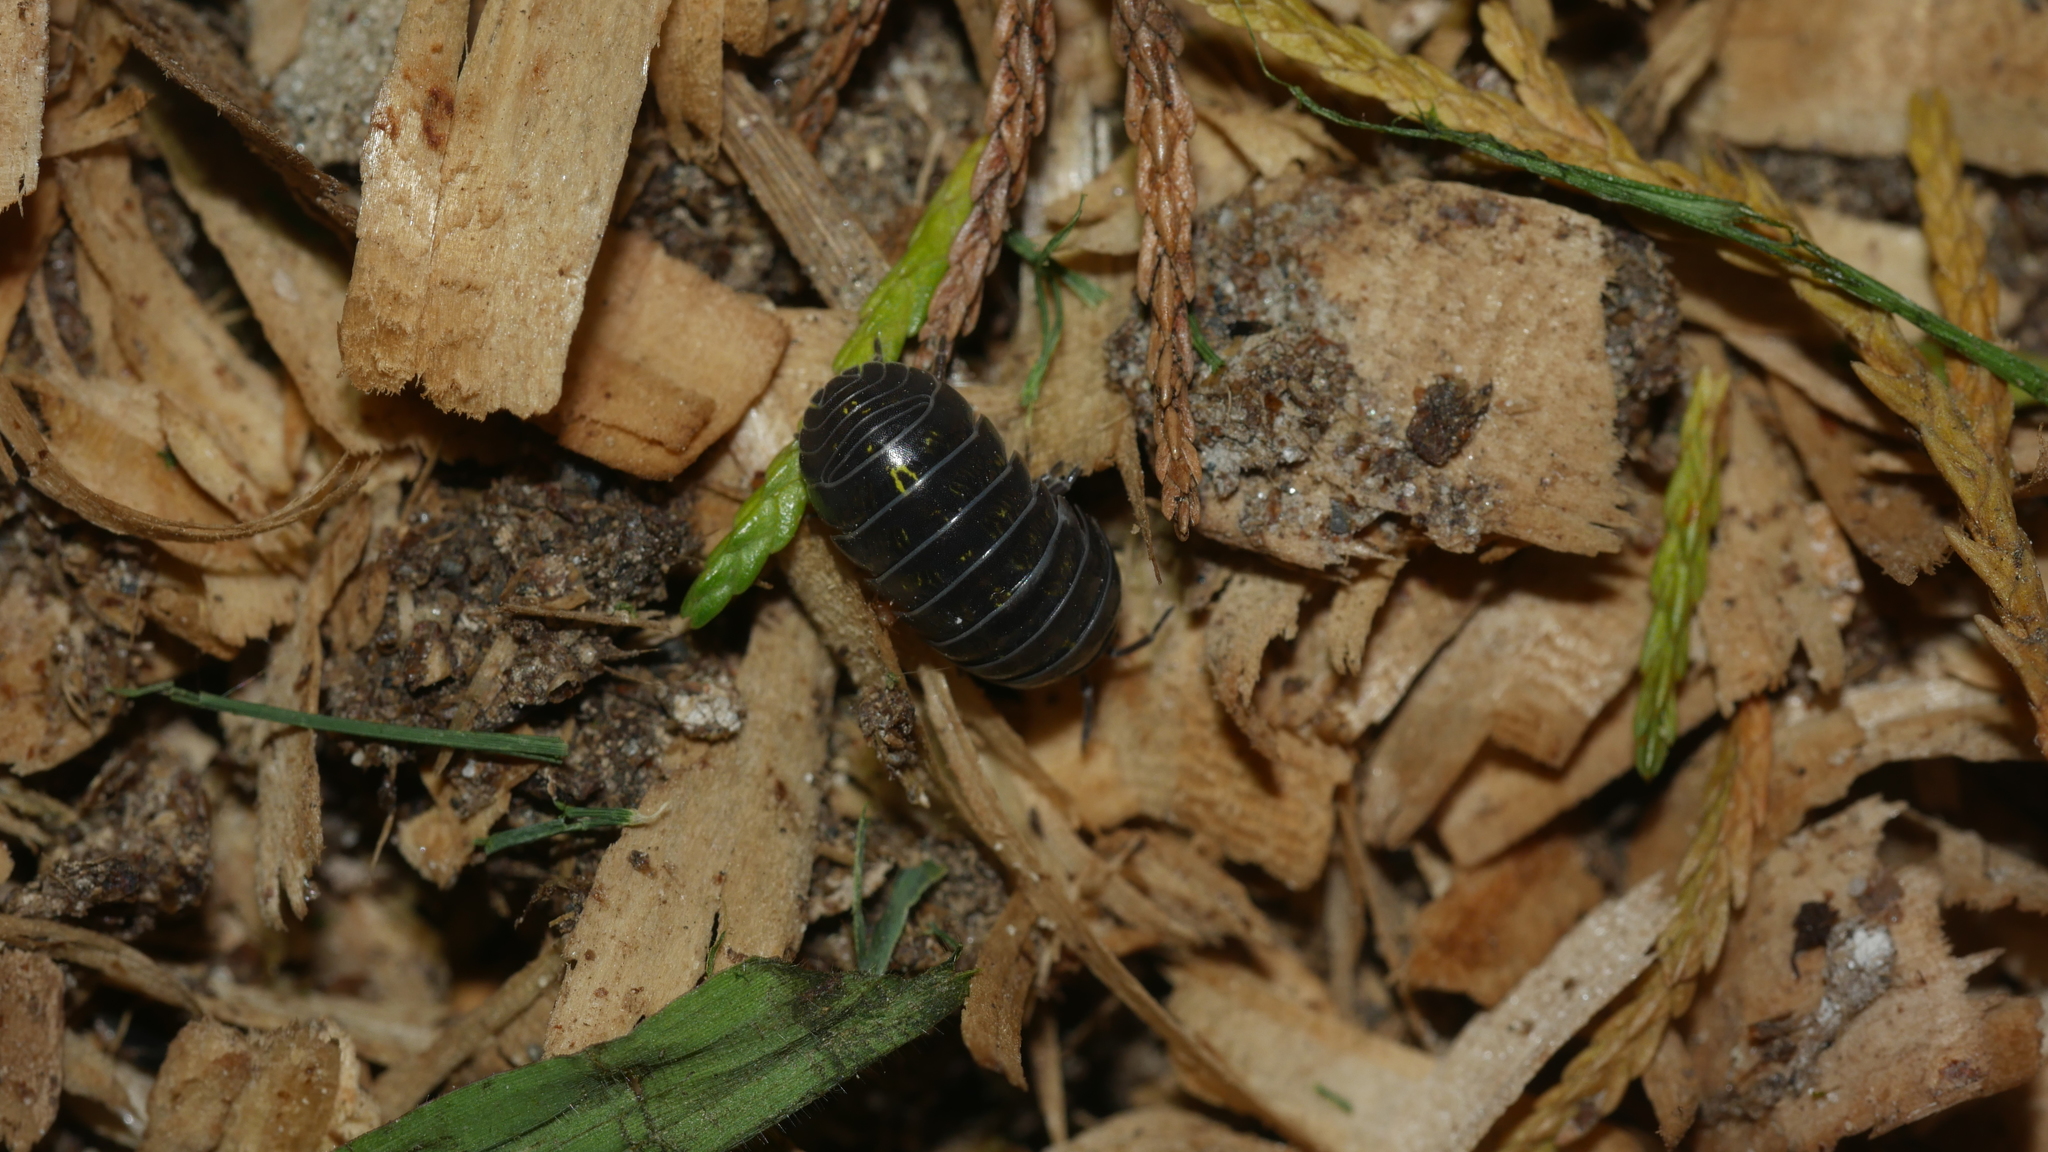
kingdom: Animalia
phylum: Arthropoda
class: Malacostraca
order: Isopoda
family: Armadillidiidae
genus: Armadillidium
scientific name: Armadillidium vulgare
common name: Common pill woodlouse
